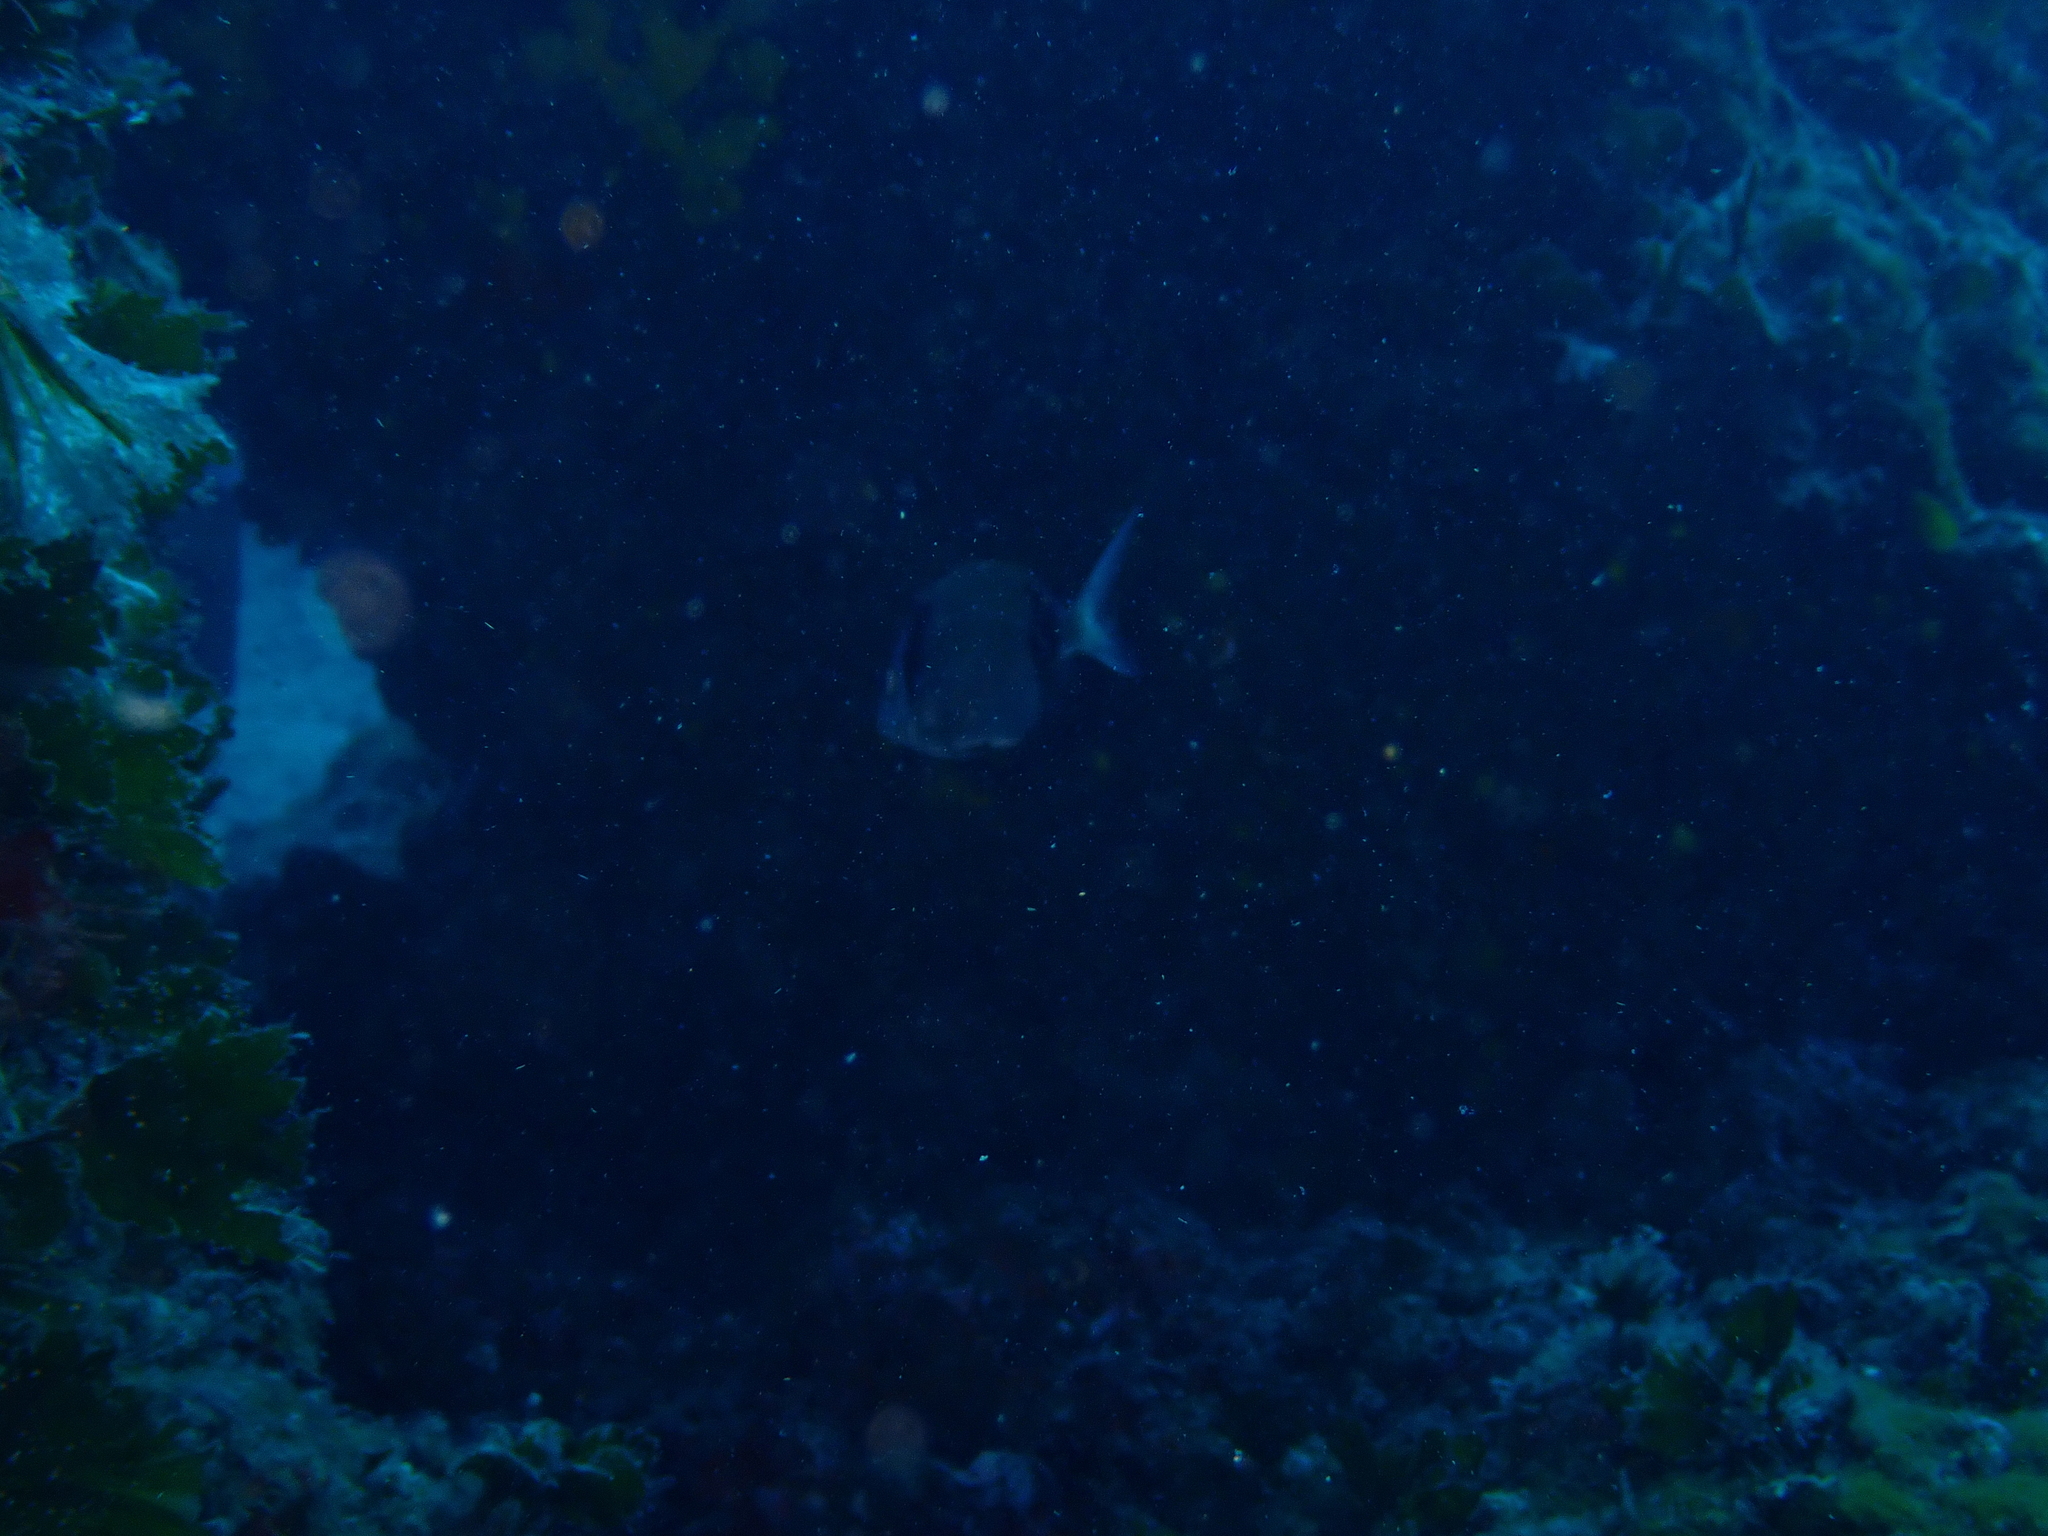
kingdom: Animalia
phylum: Chordata
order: Perciformes
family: Sparidae
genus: Diplodus
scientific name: Diplodus vulgaris
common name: Common two-banded seabream
